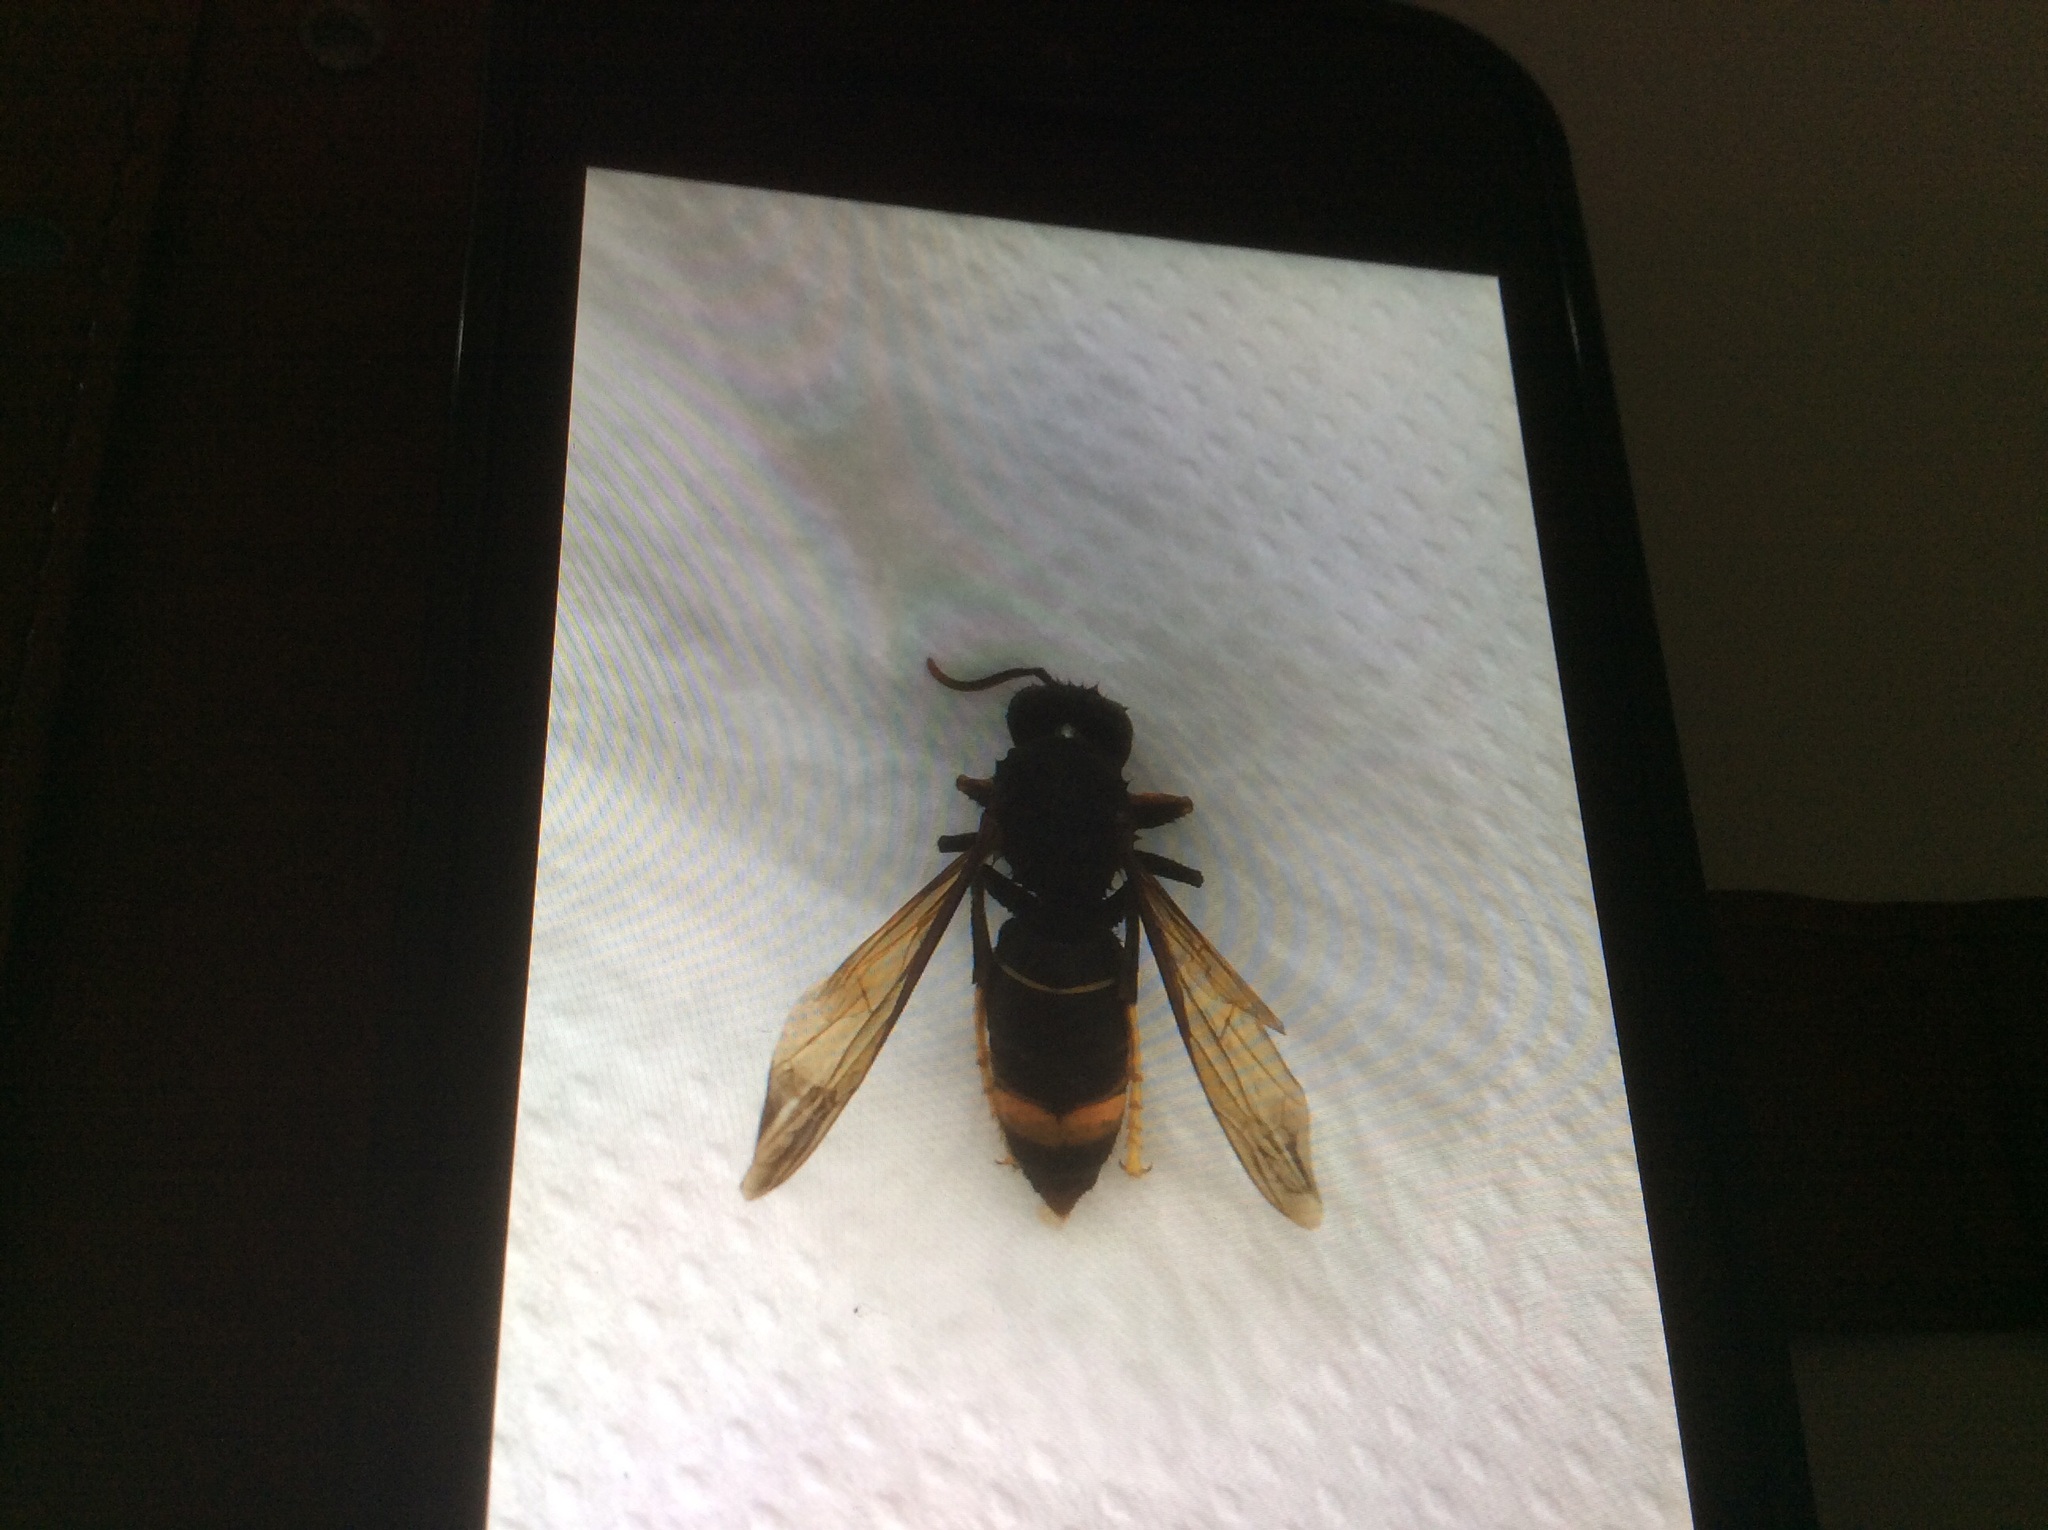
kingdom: Animalia
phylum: Arthropoda
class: Insecta
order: Hymenoptera
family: Vespidae
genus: Vespa
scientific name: Vespa velutina
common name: Asian hornet
